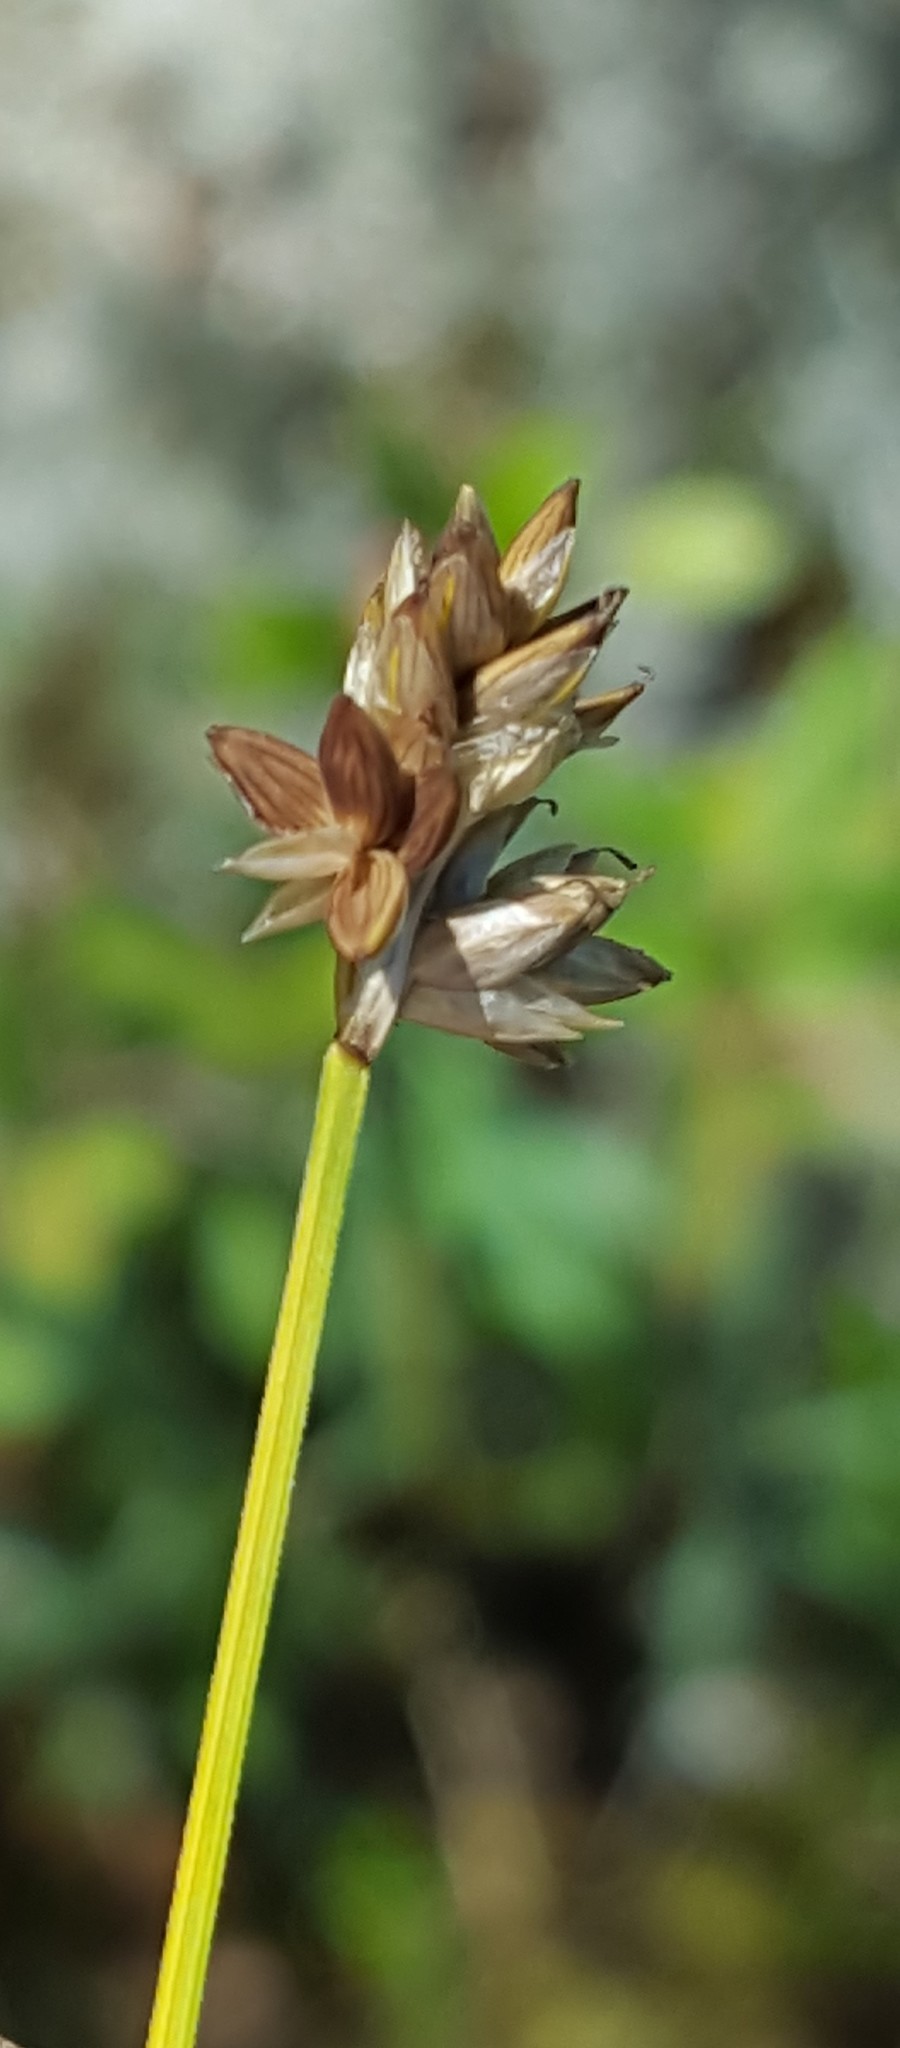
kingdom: Plantae
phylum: Tracheophyta
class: Liliopsida
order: Poales
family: Cyperaceae
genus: Carex
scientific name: Carex tenuiflora
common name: Sparse-flowered sedge
